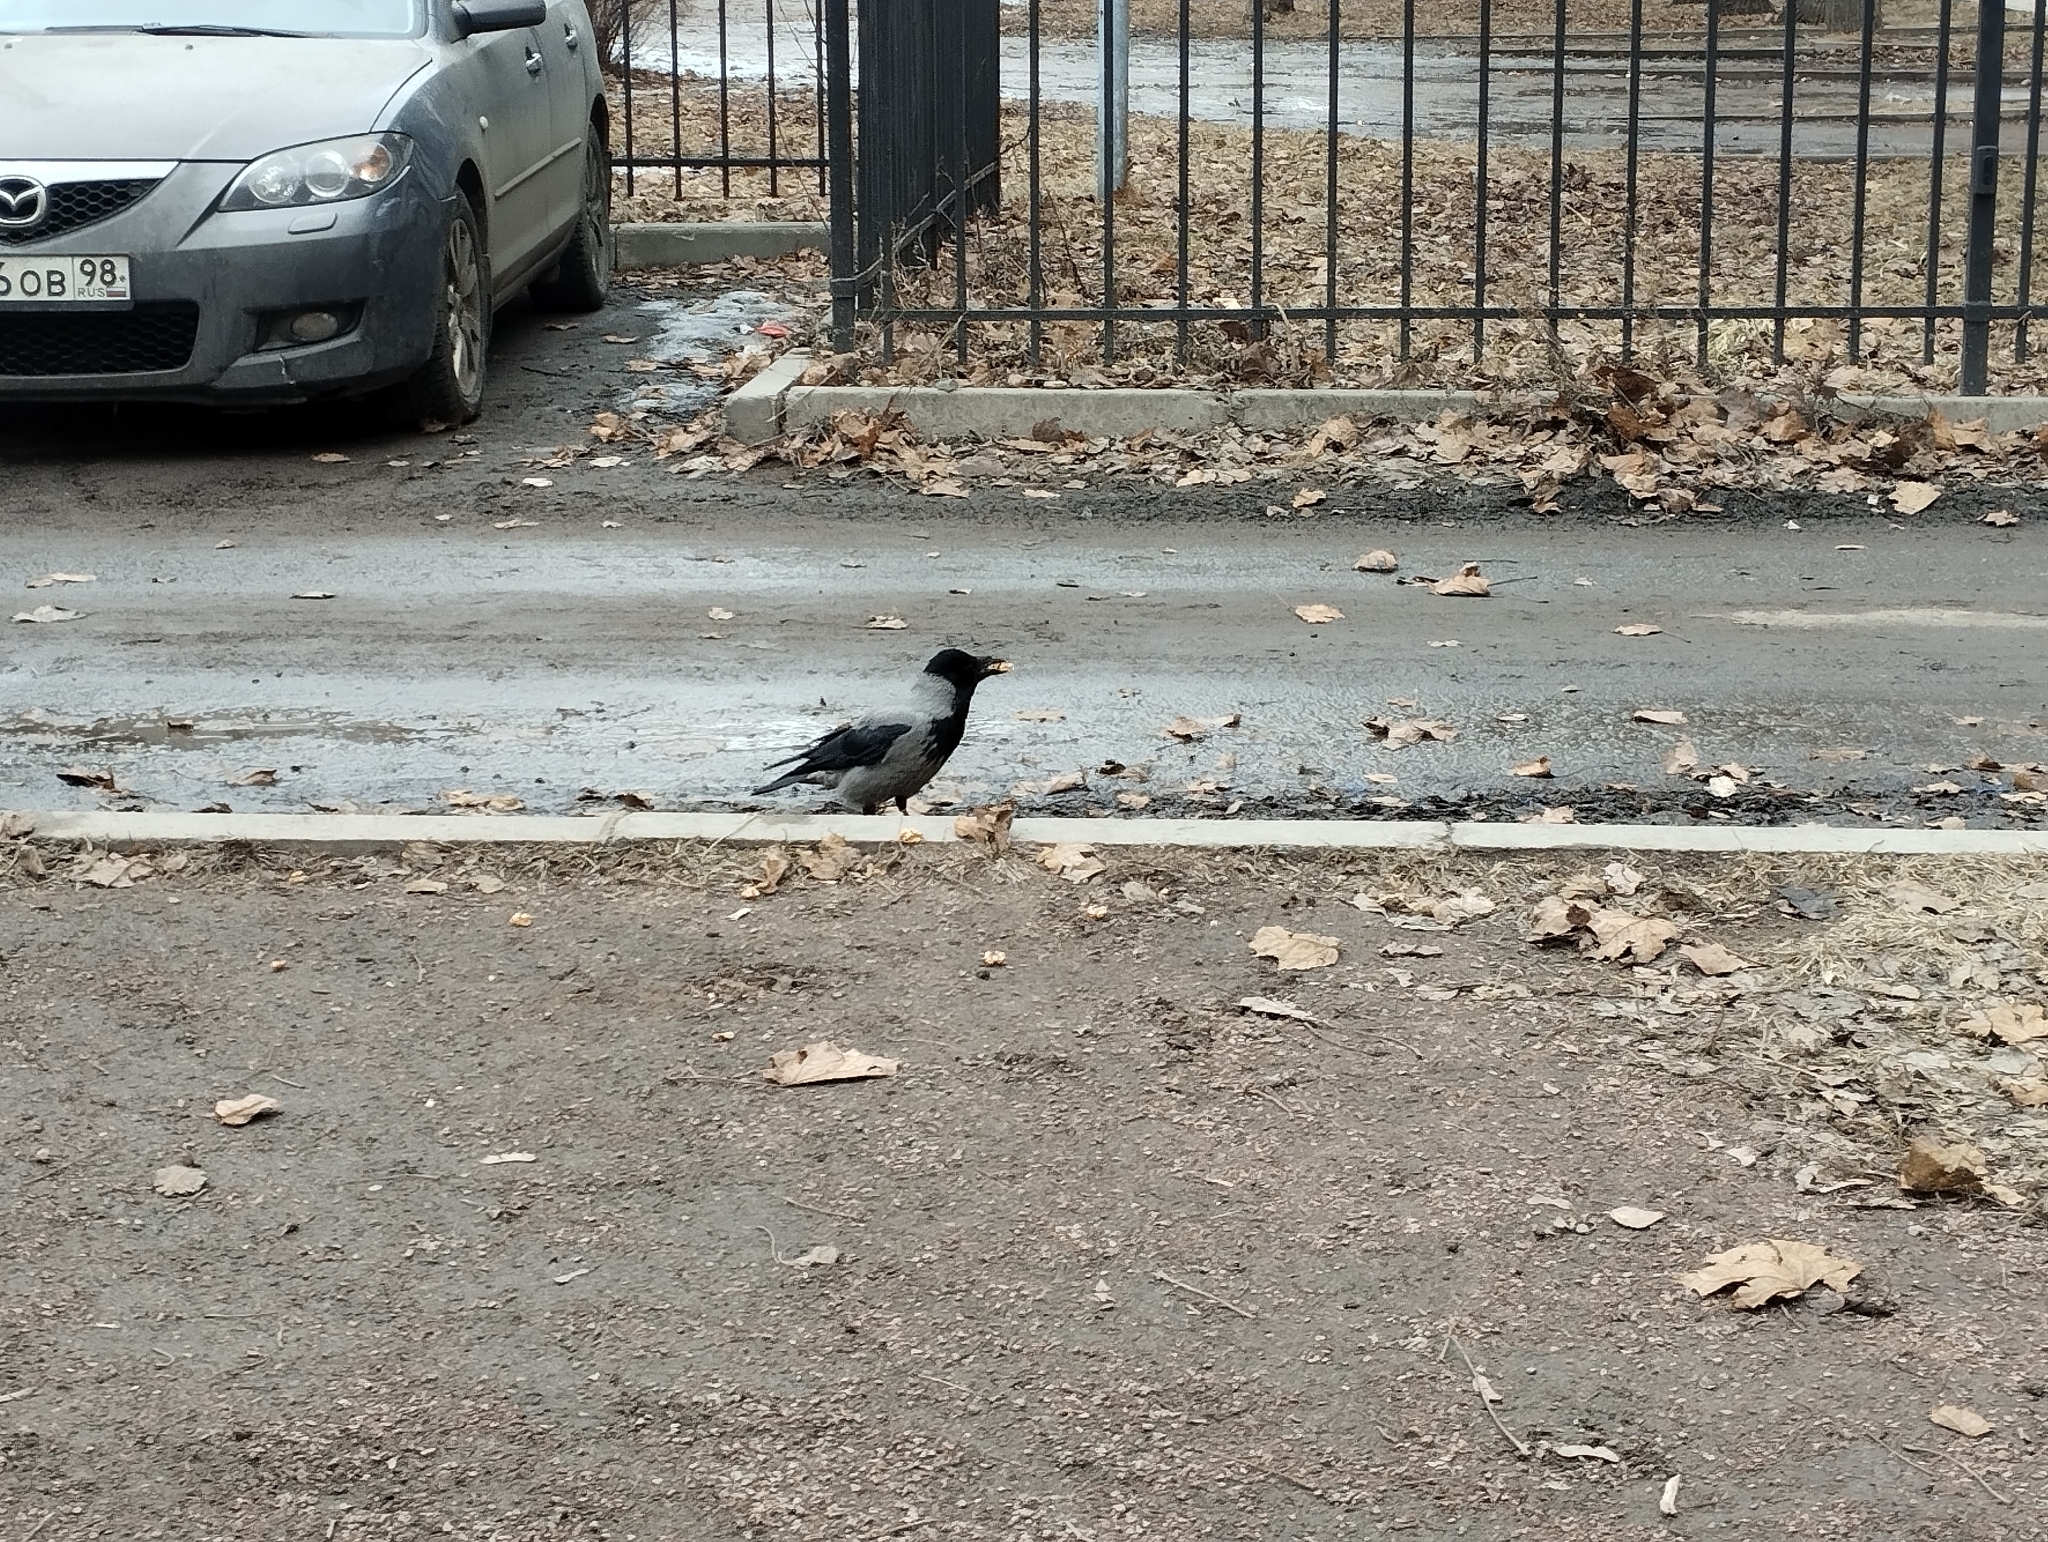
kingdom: Animalia
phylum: Chordata
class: Aves
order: Passeriformes
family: Corvidae
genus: Corvus
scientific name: Corvus cornix
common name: Hooded crow
